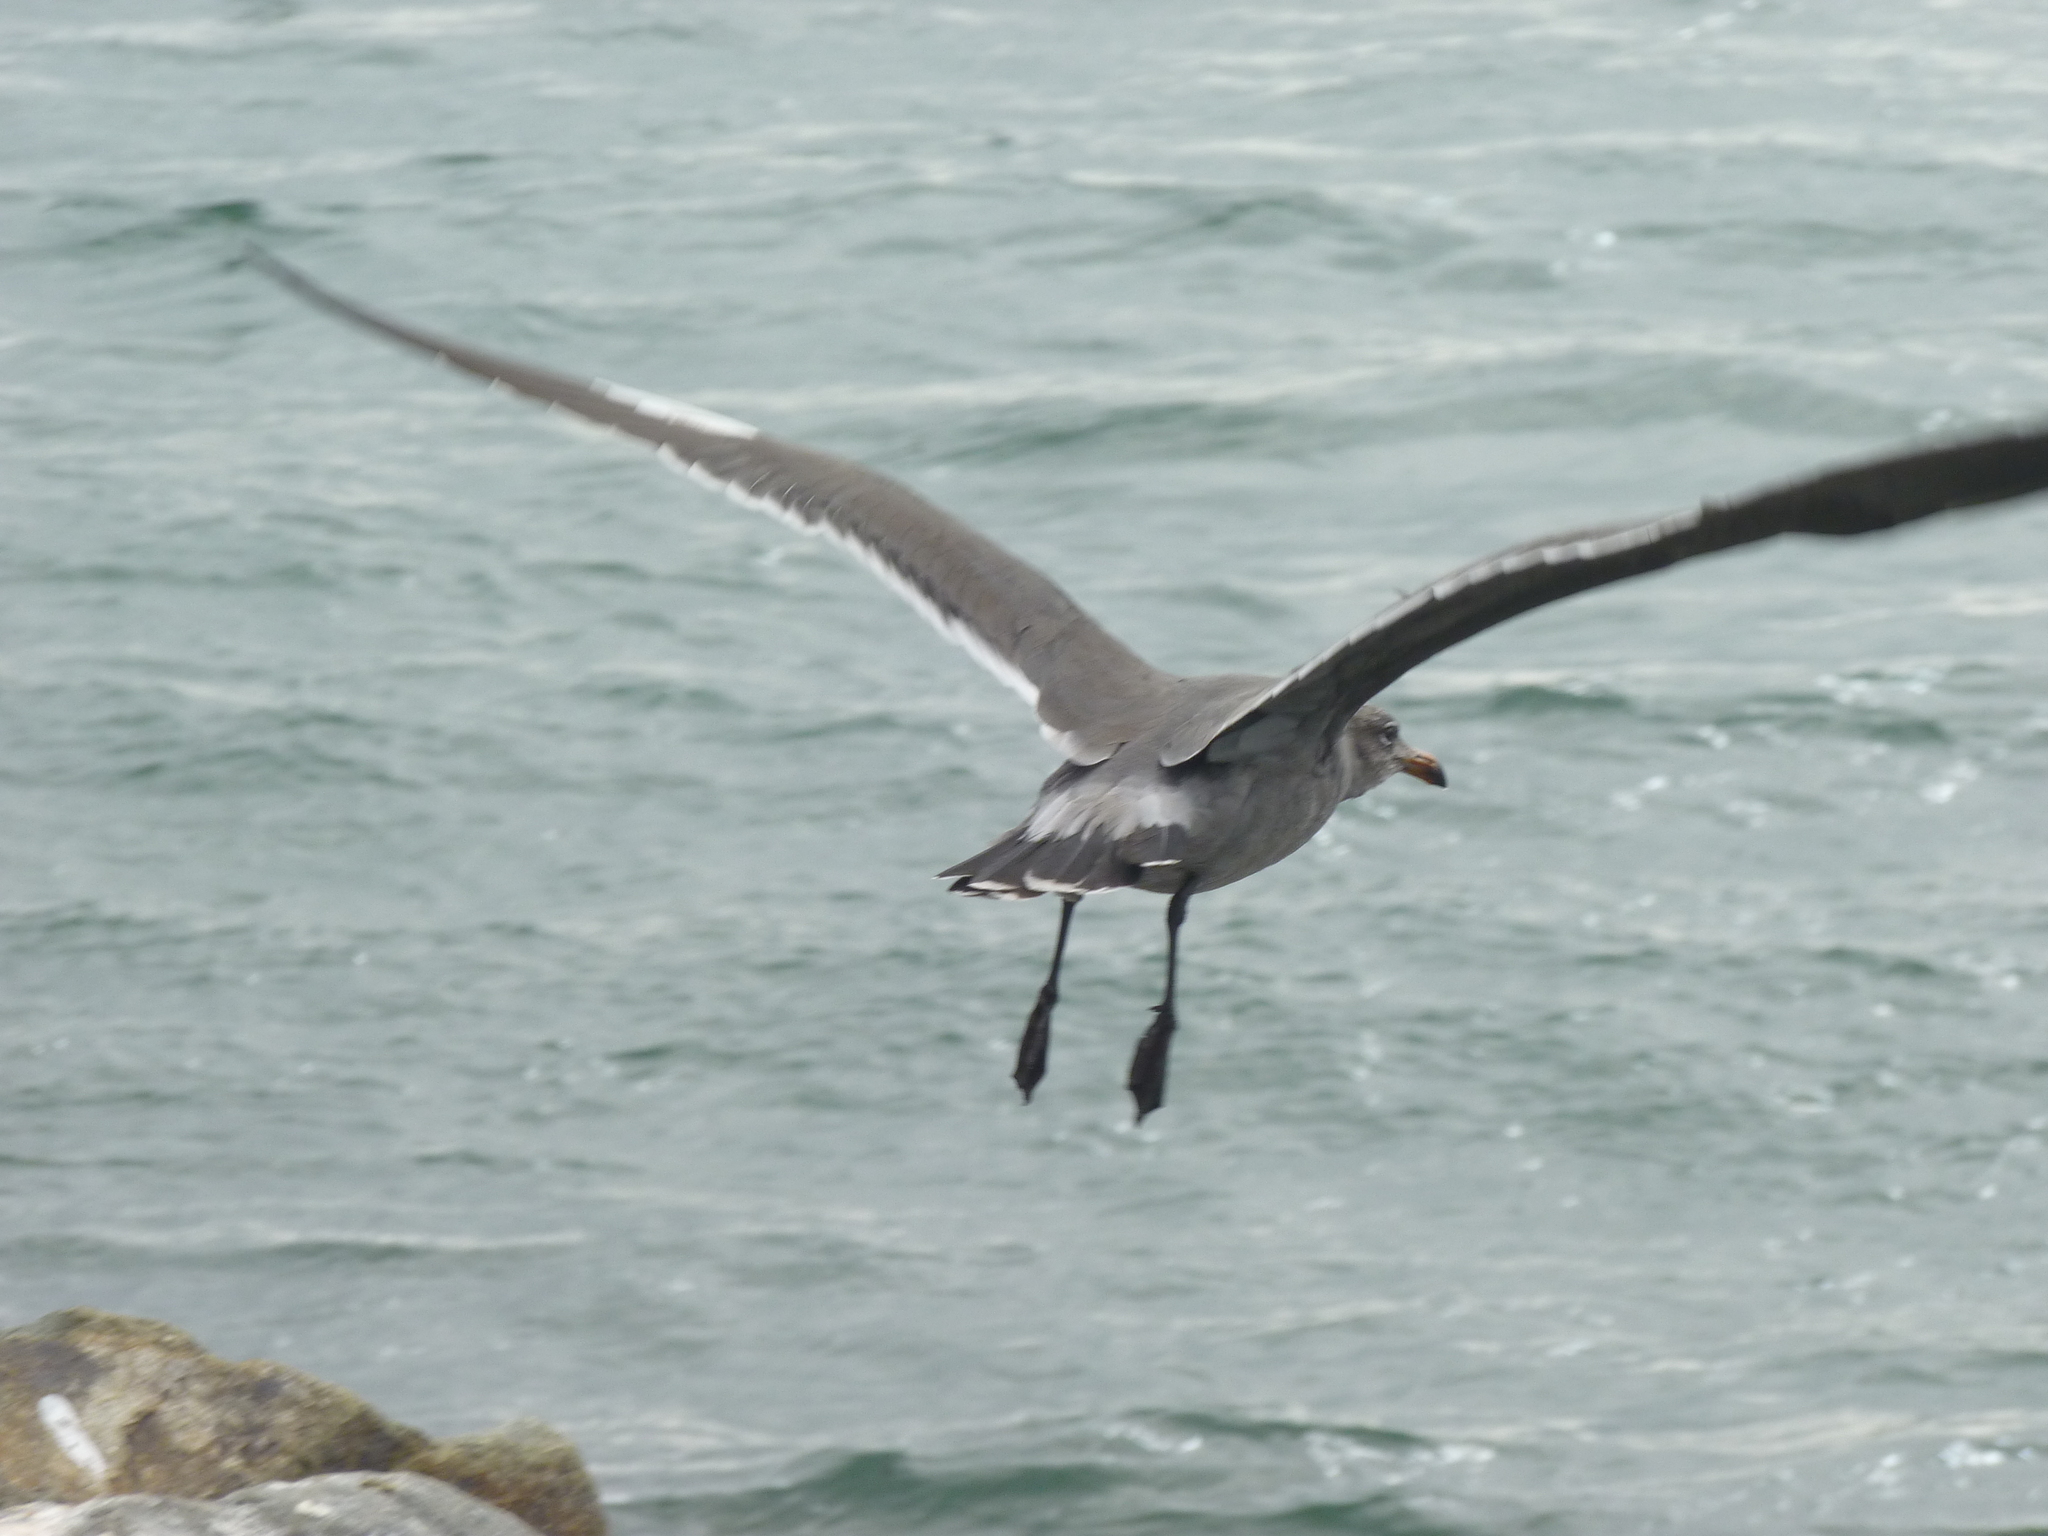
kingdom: Animalia
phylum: Chordata
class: Aves
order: Charadriiformes
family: Laridae
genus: Larus
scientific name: Larus heermanni
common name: Heermann's gull
